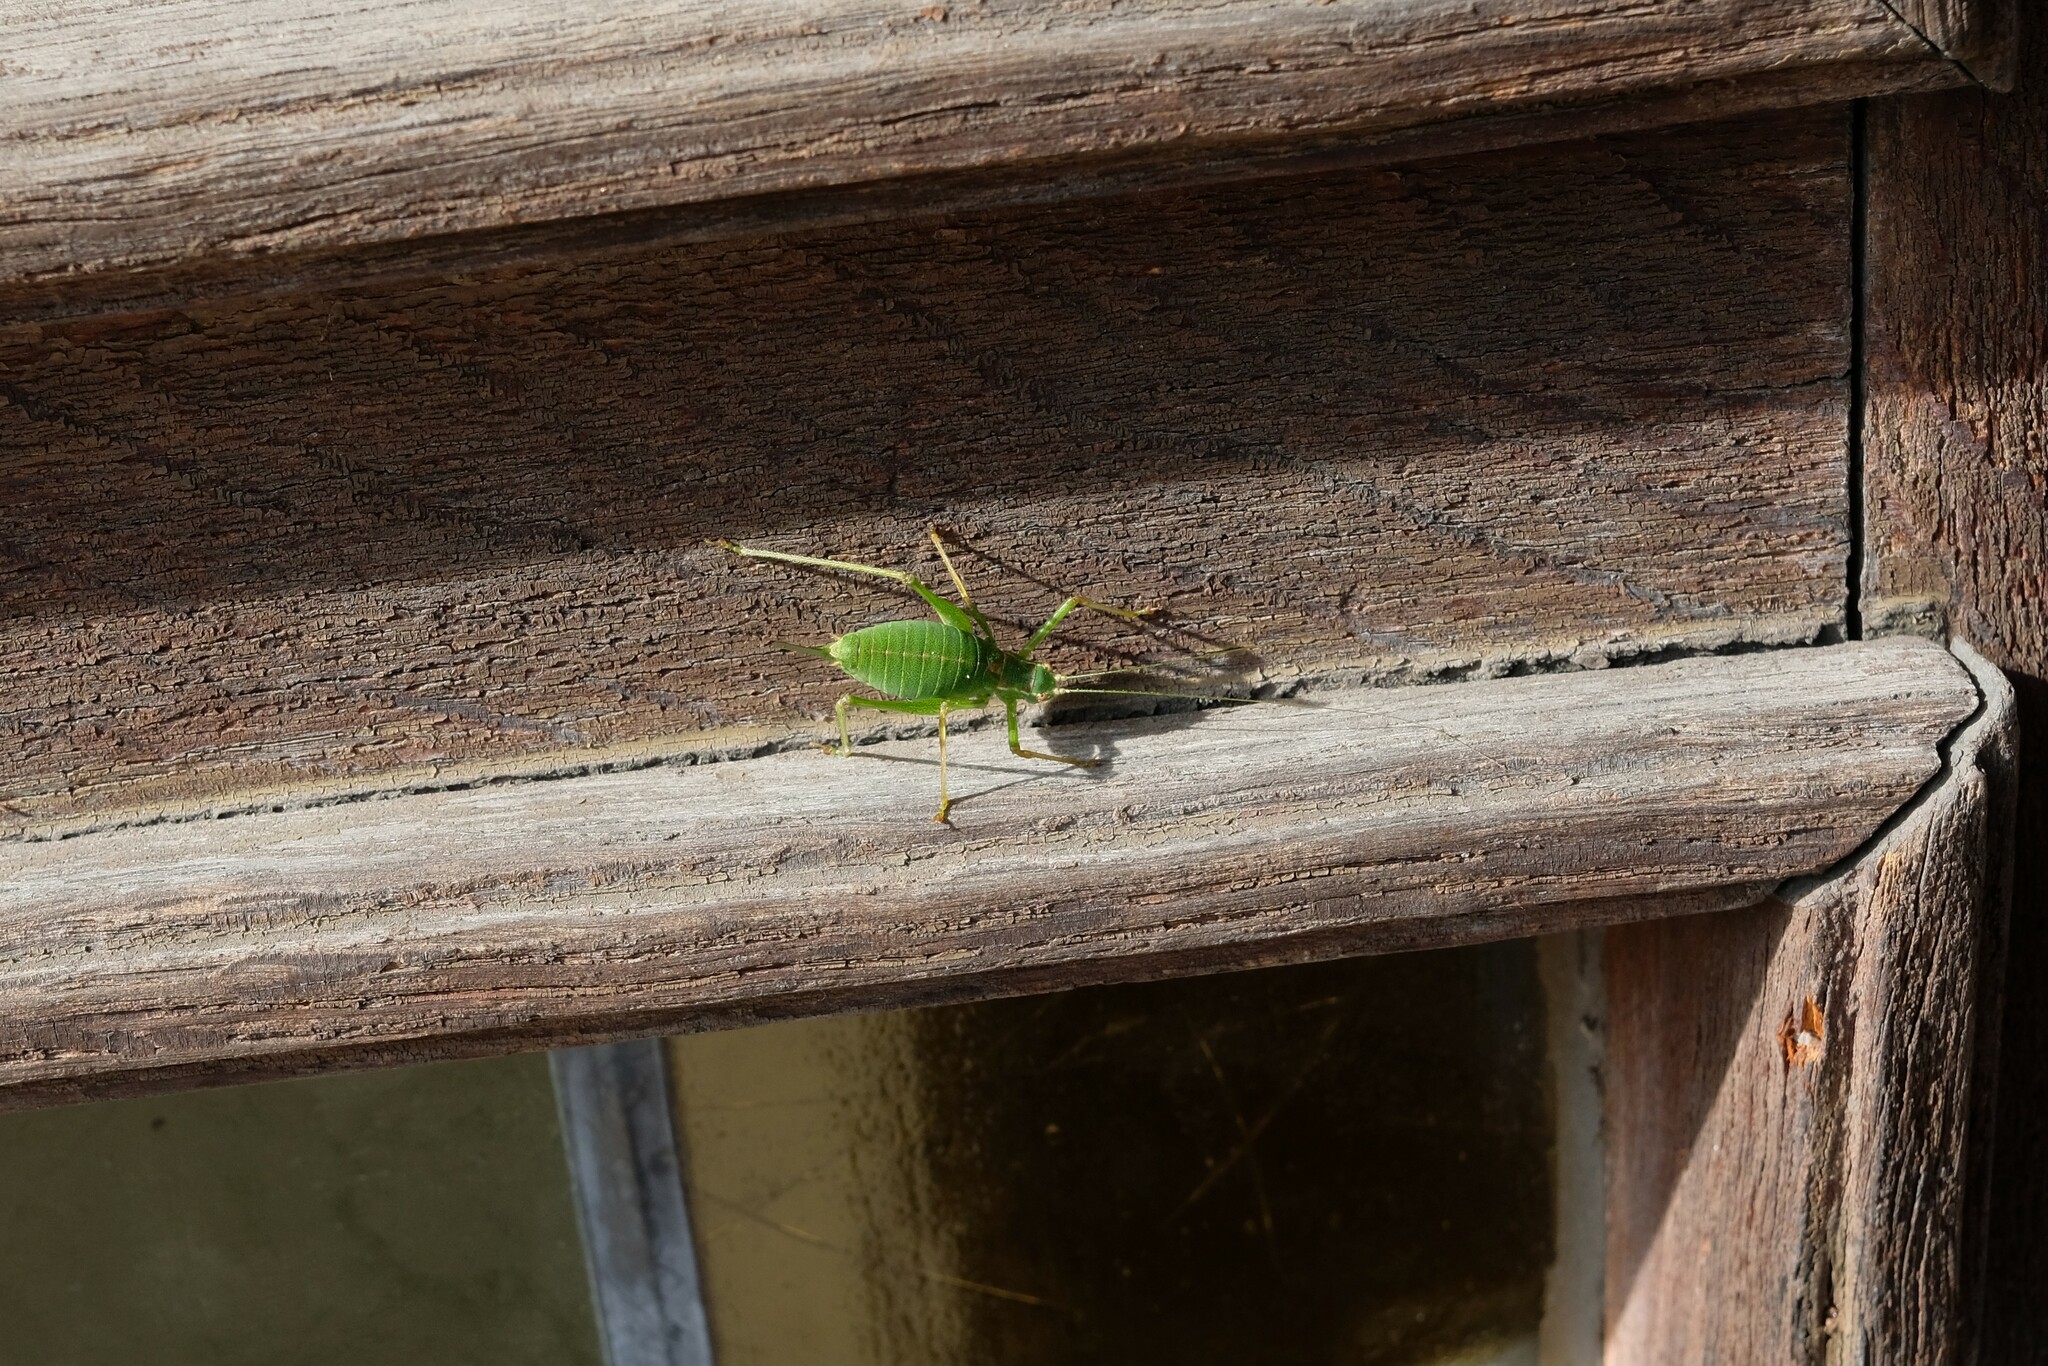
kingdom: Animalia
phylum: Arthropoda
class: Insecta
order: Orthoptera
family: Tettigoniidae
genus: Leptophyes
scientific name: Leptophyes punctatissima
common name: Speckled bush-cricket
